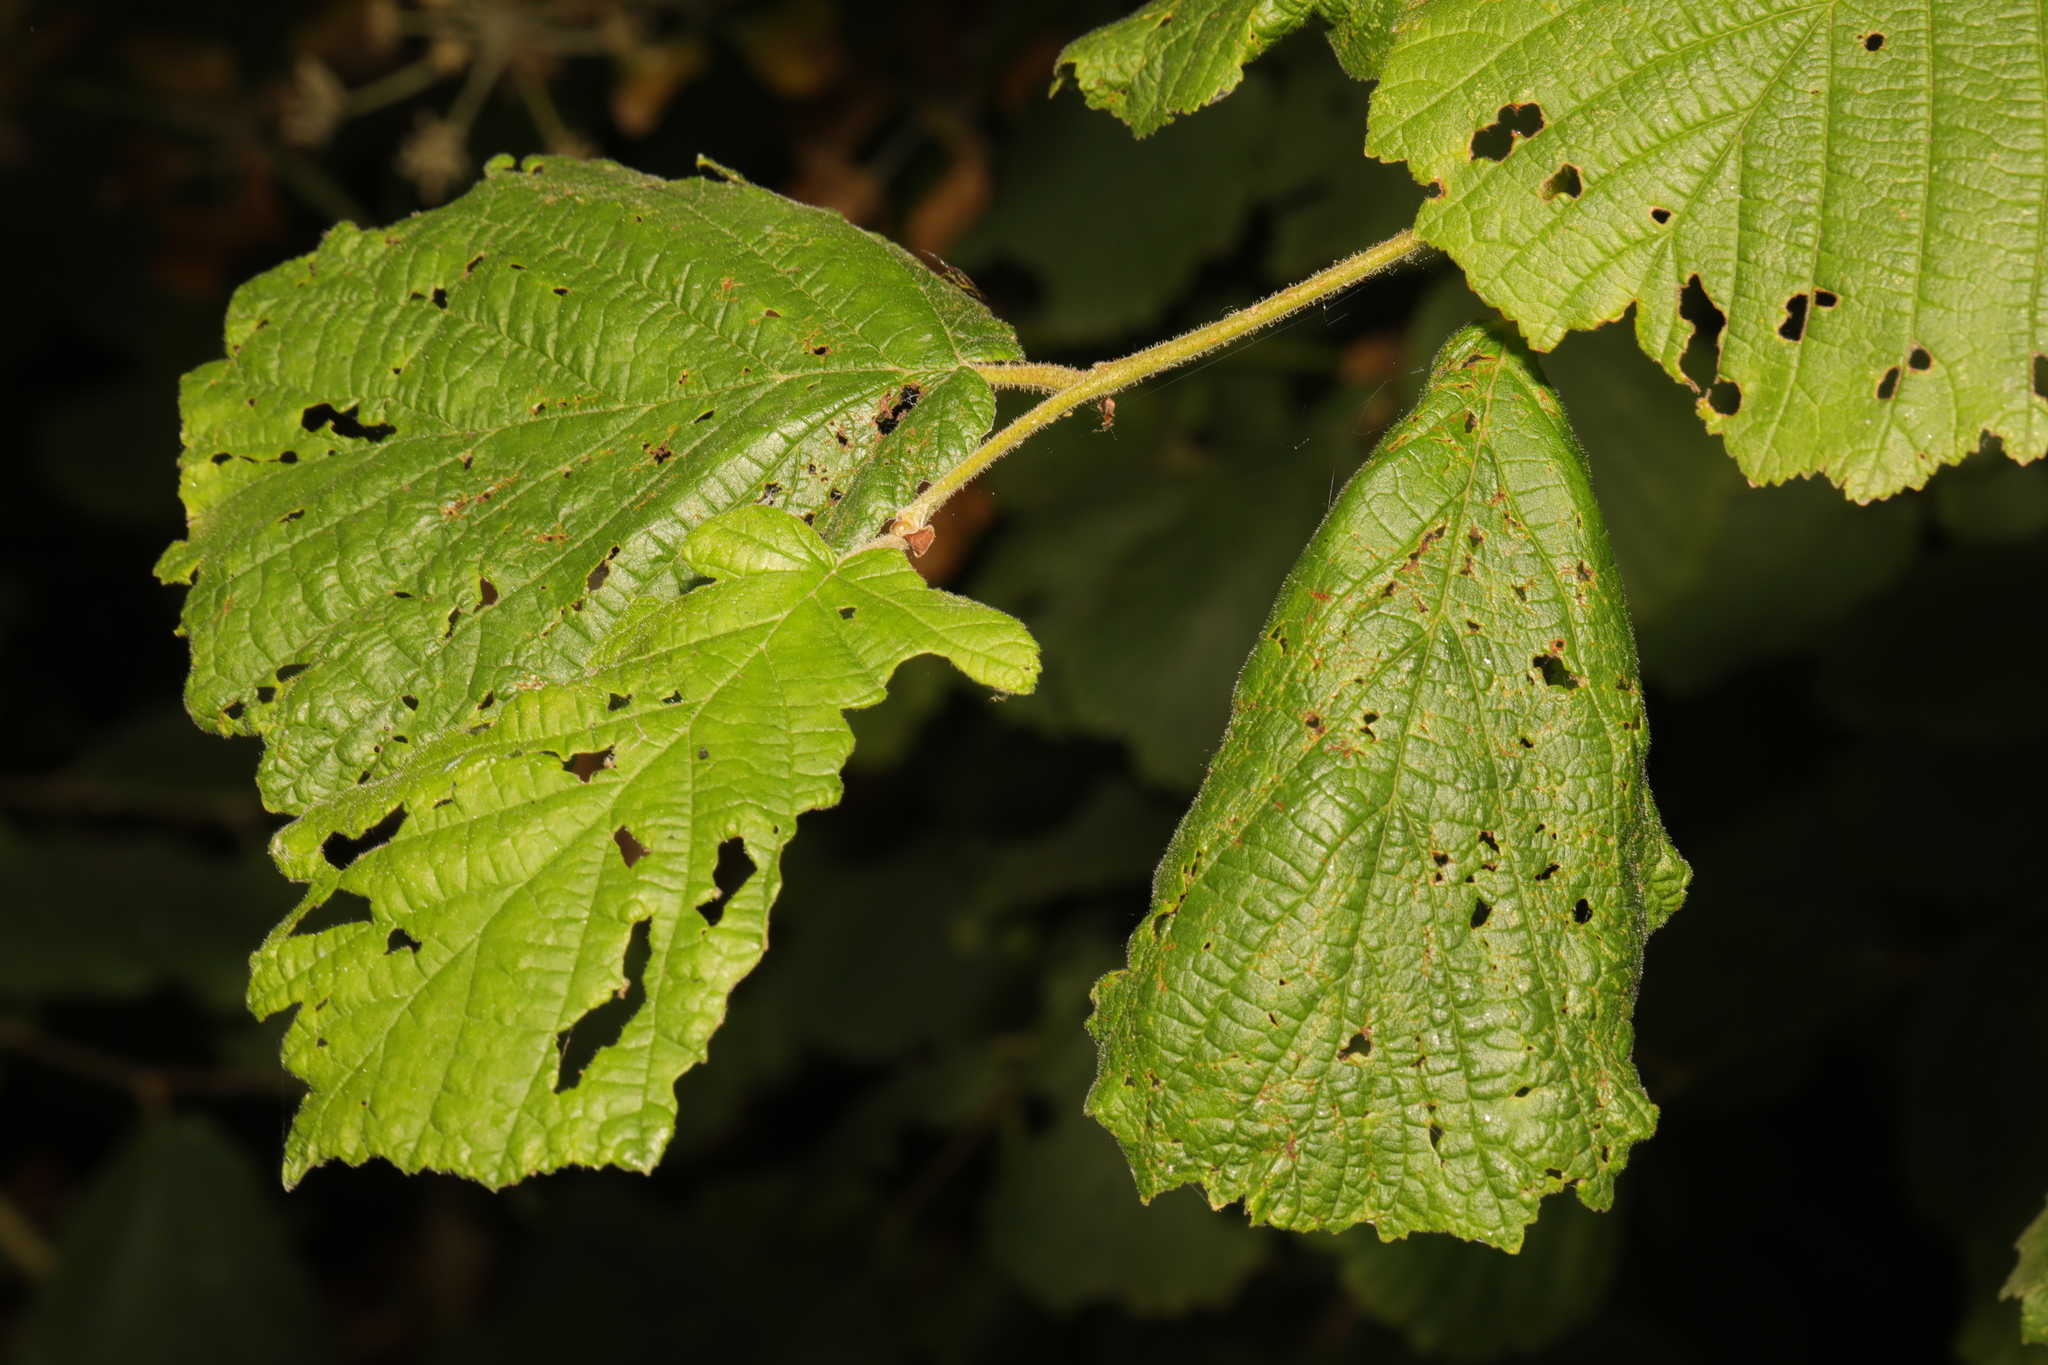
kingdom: Plantae
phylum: Tracheophyta
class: Magnoliopsida
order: Fagales
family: Betulaceae
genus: Corylus
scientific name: Corylus avellana
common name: European hazel
